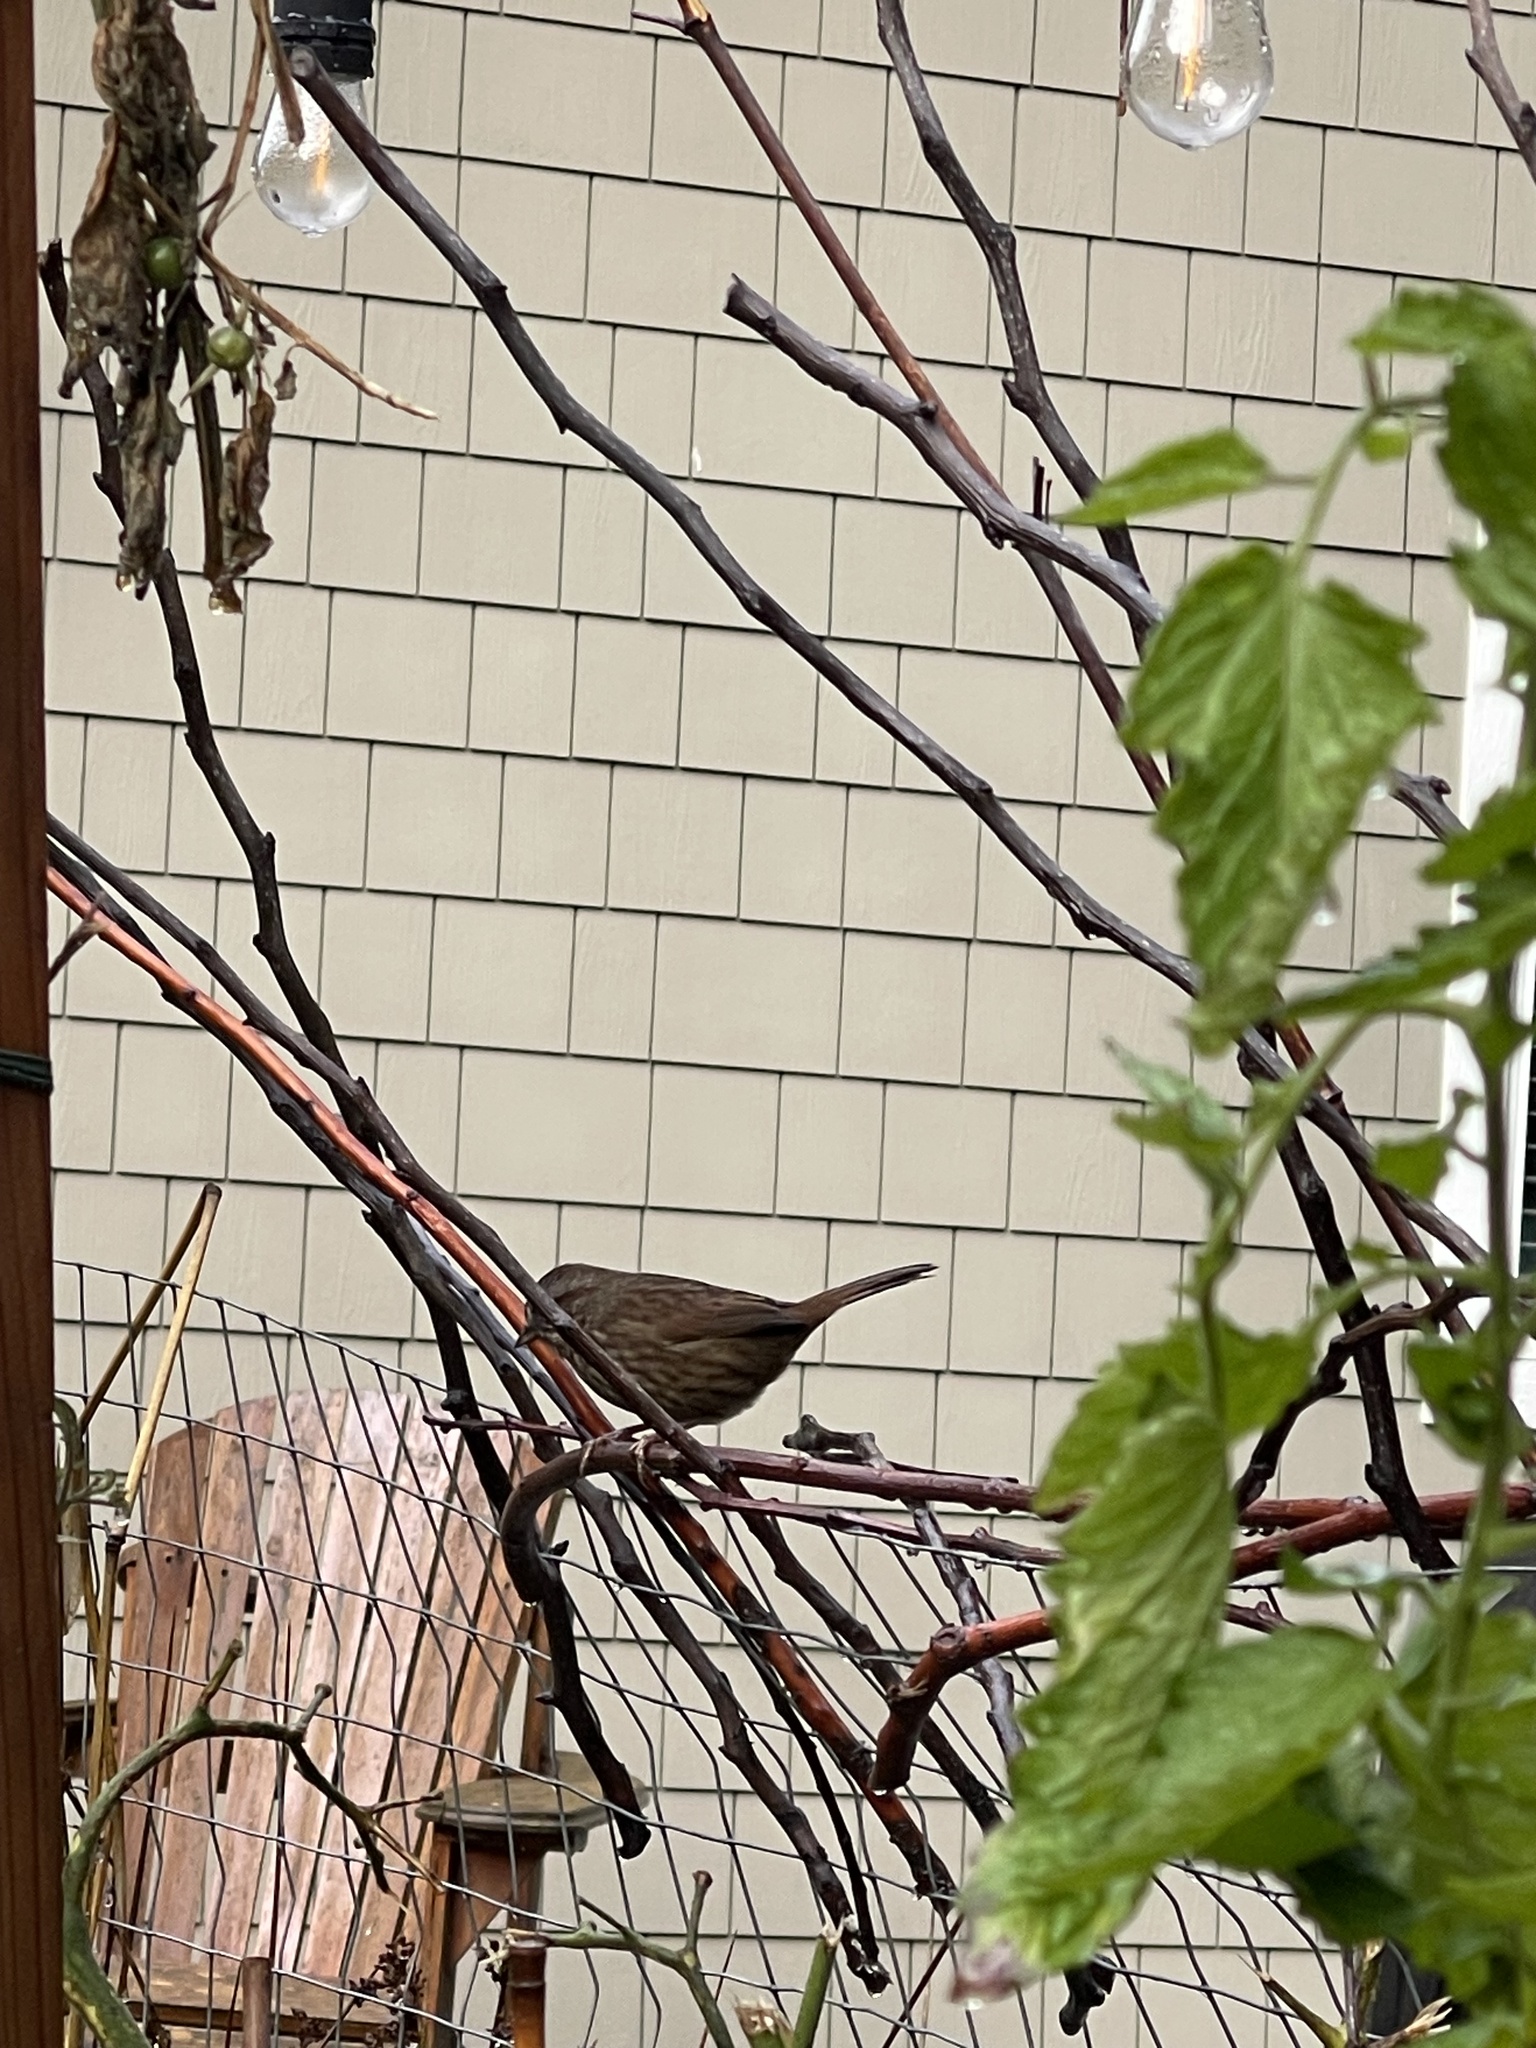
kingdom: Animalia
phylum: Chordata
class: Aves
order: Passeriformes
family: Passerellidae
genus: Melospiza
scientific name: Melospiza melodia
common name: Song sparrow
